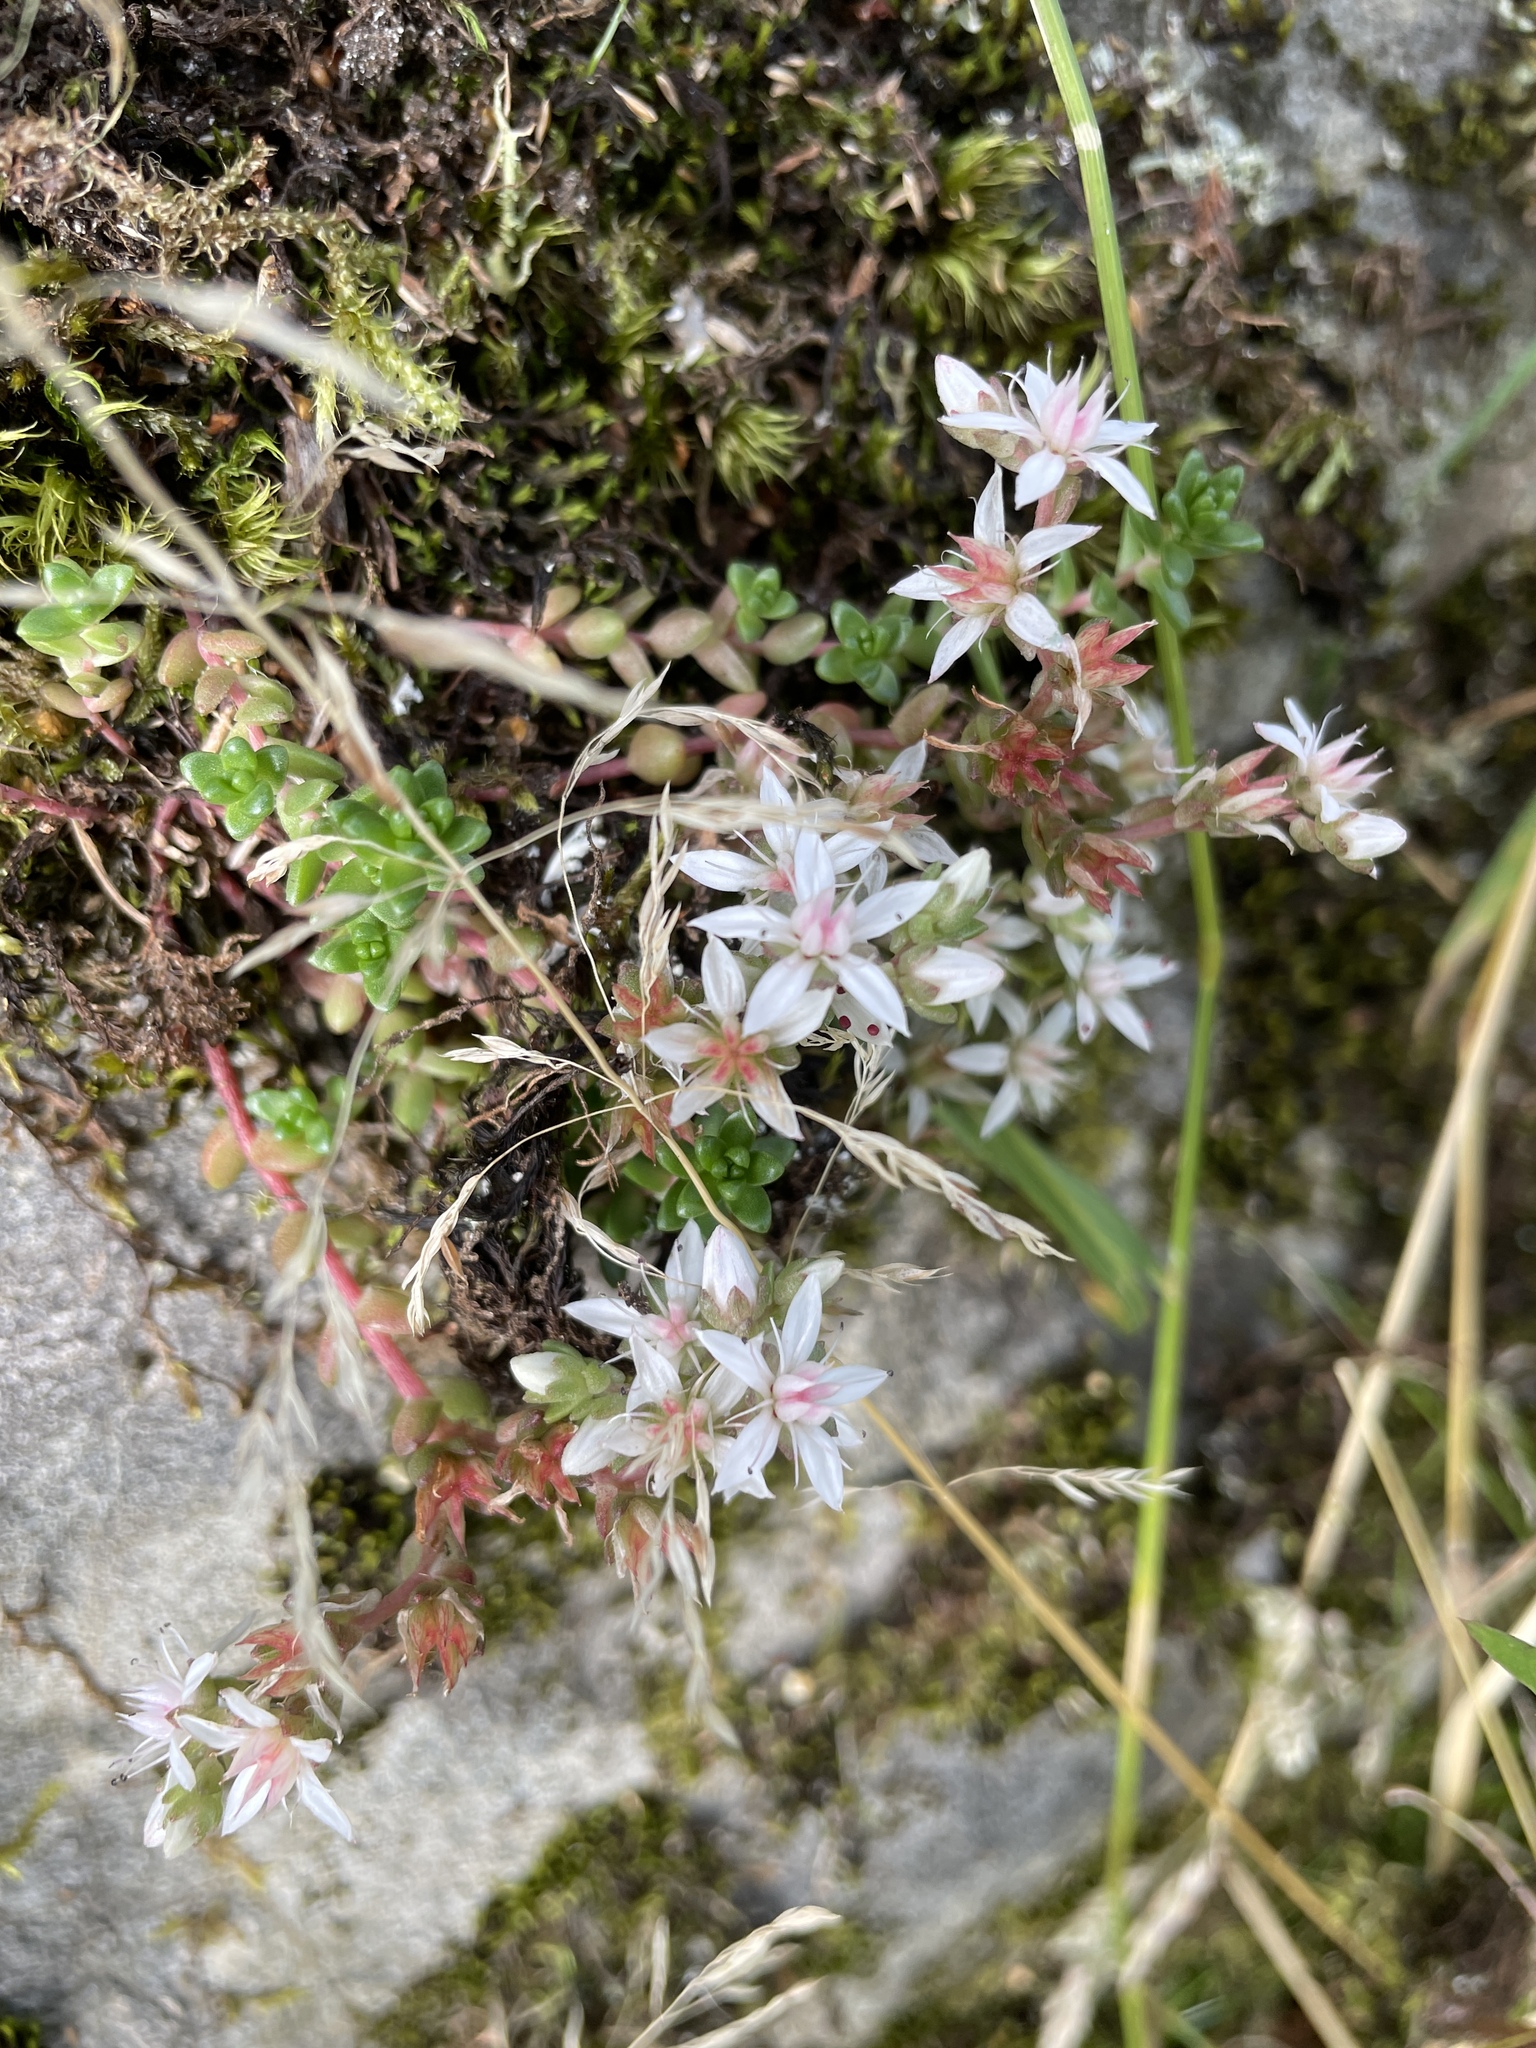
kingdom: Plantae
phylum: Tracheophyta
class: Magnoliopsida
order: Saxifragales
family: Crassulaceae
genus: Sedum
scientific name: Sedum anglicum
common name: English stonecrop
